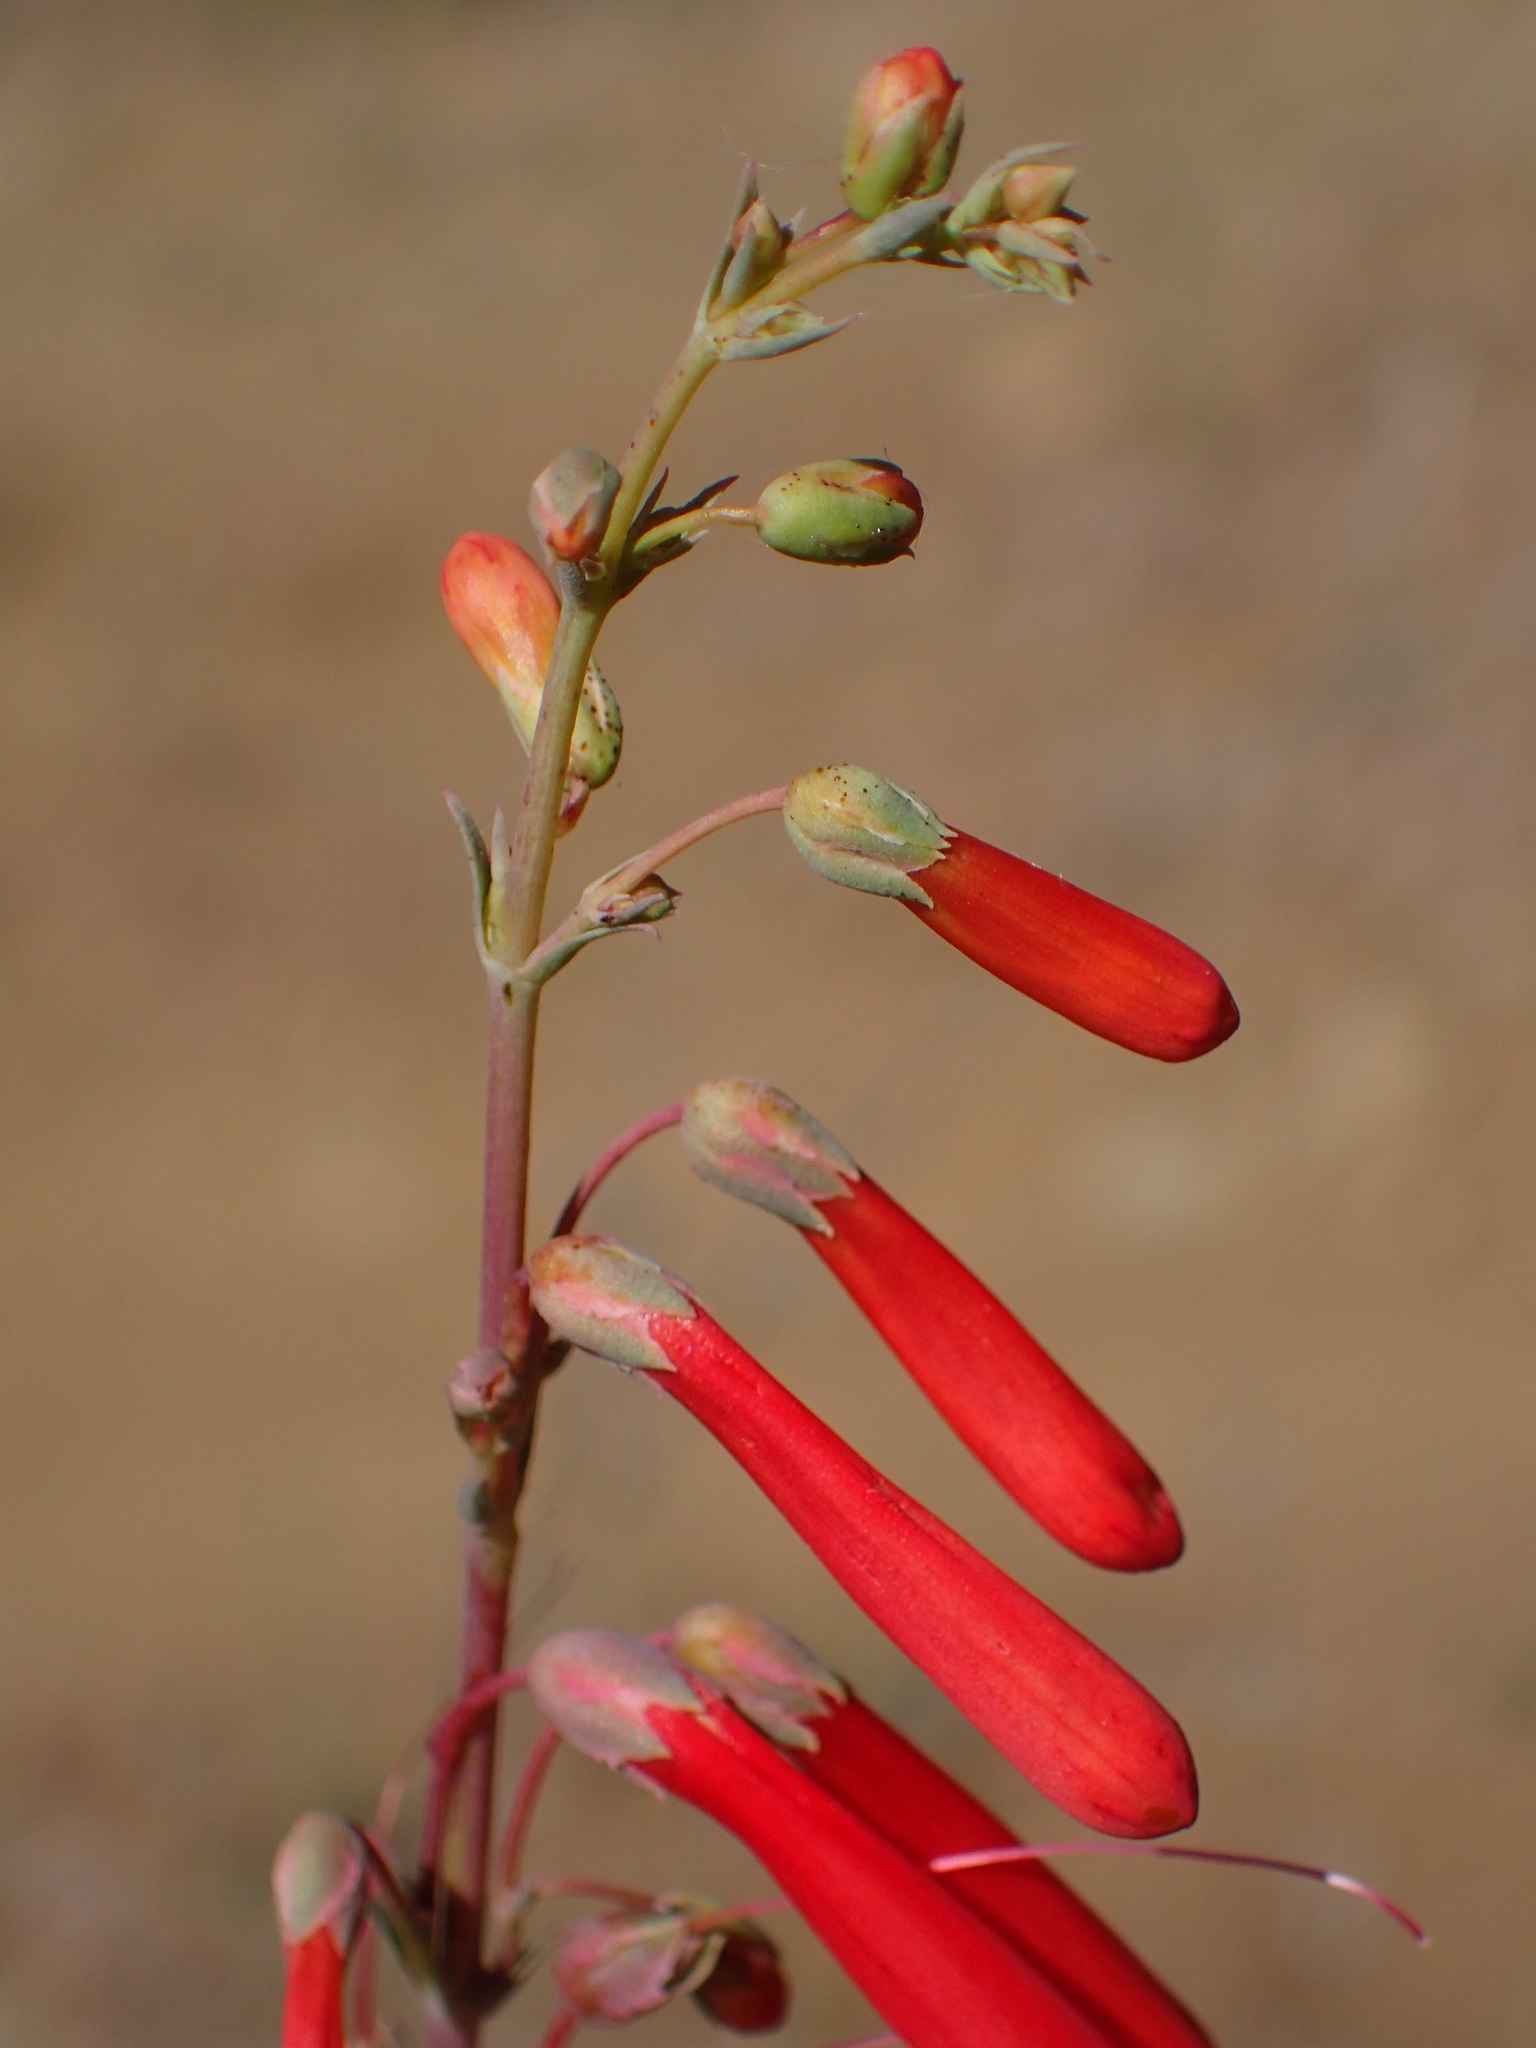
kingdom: Plantae
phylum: Tracheophyta
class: Magnoliopsida
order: Lamiales
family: Plantaginaceae
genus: Penstemon
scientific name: Penstemon centranthifolius
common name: Scarlet bugler
